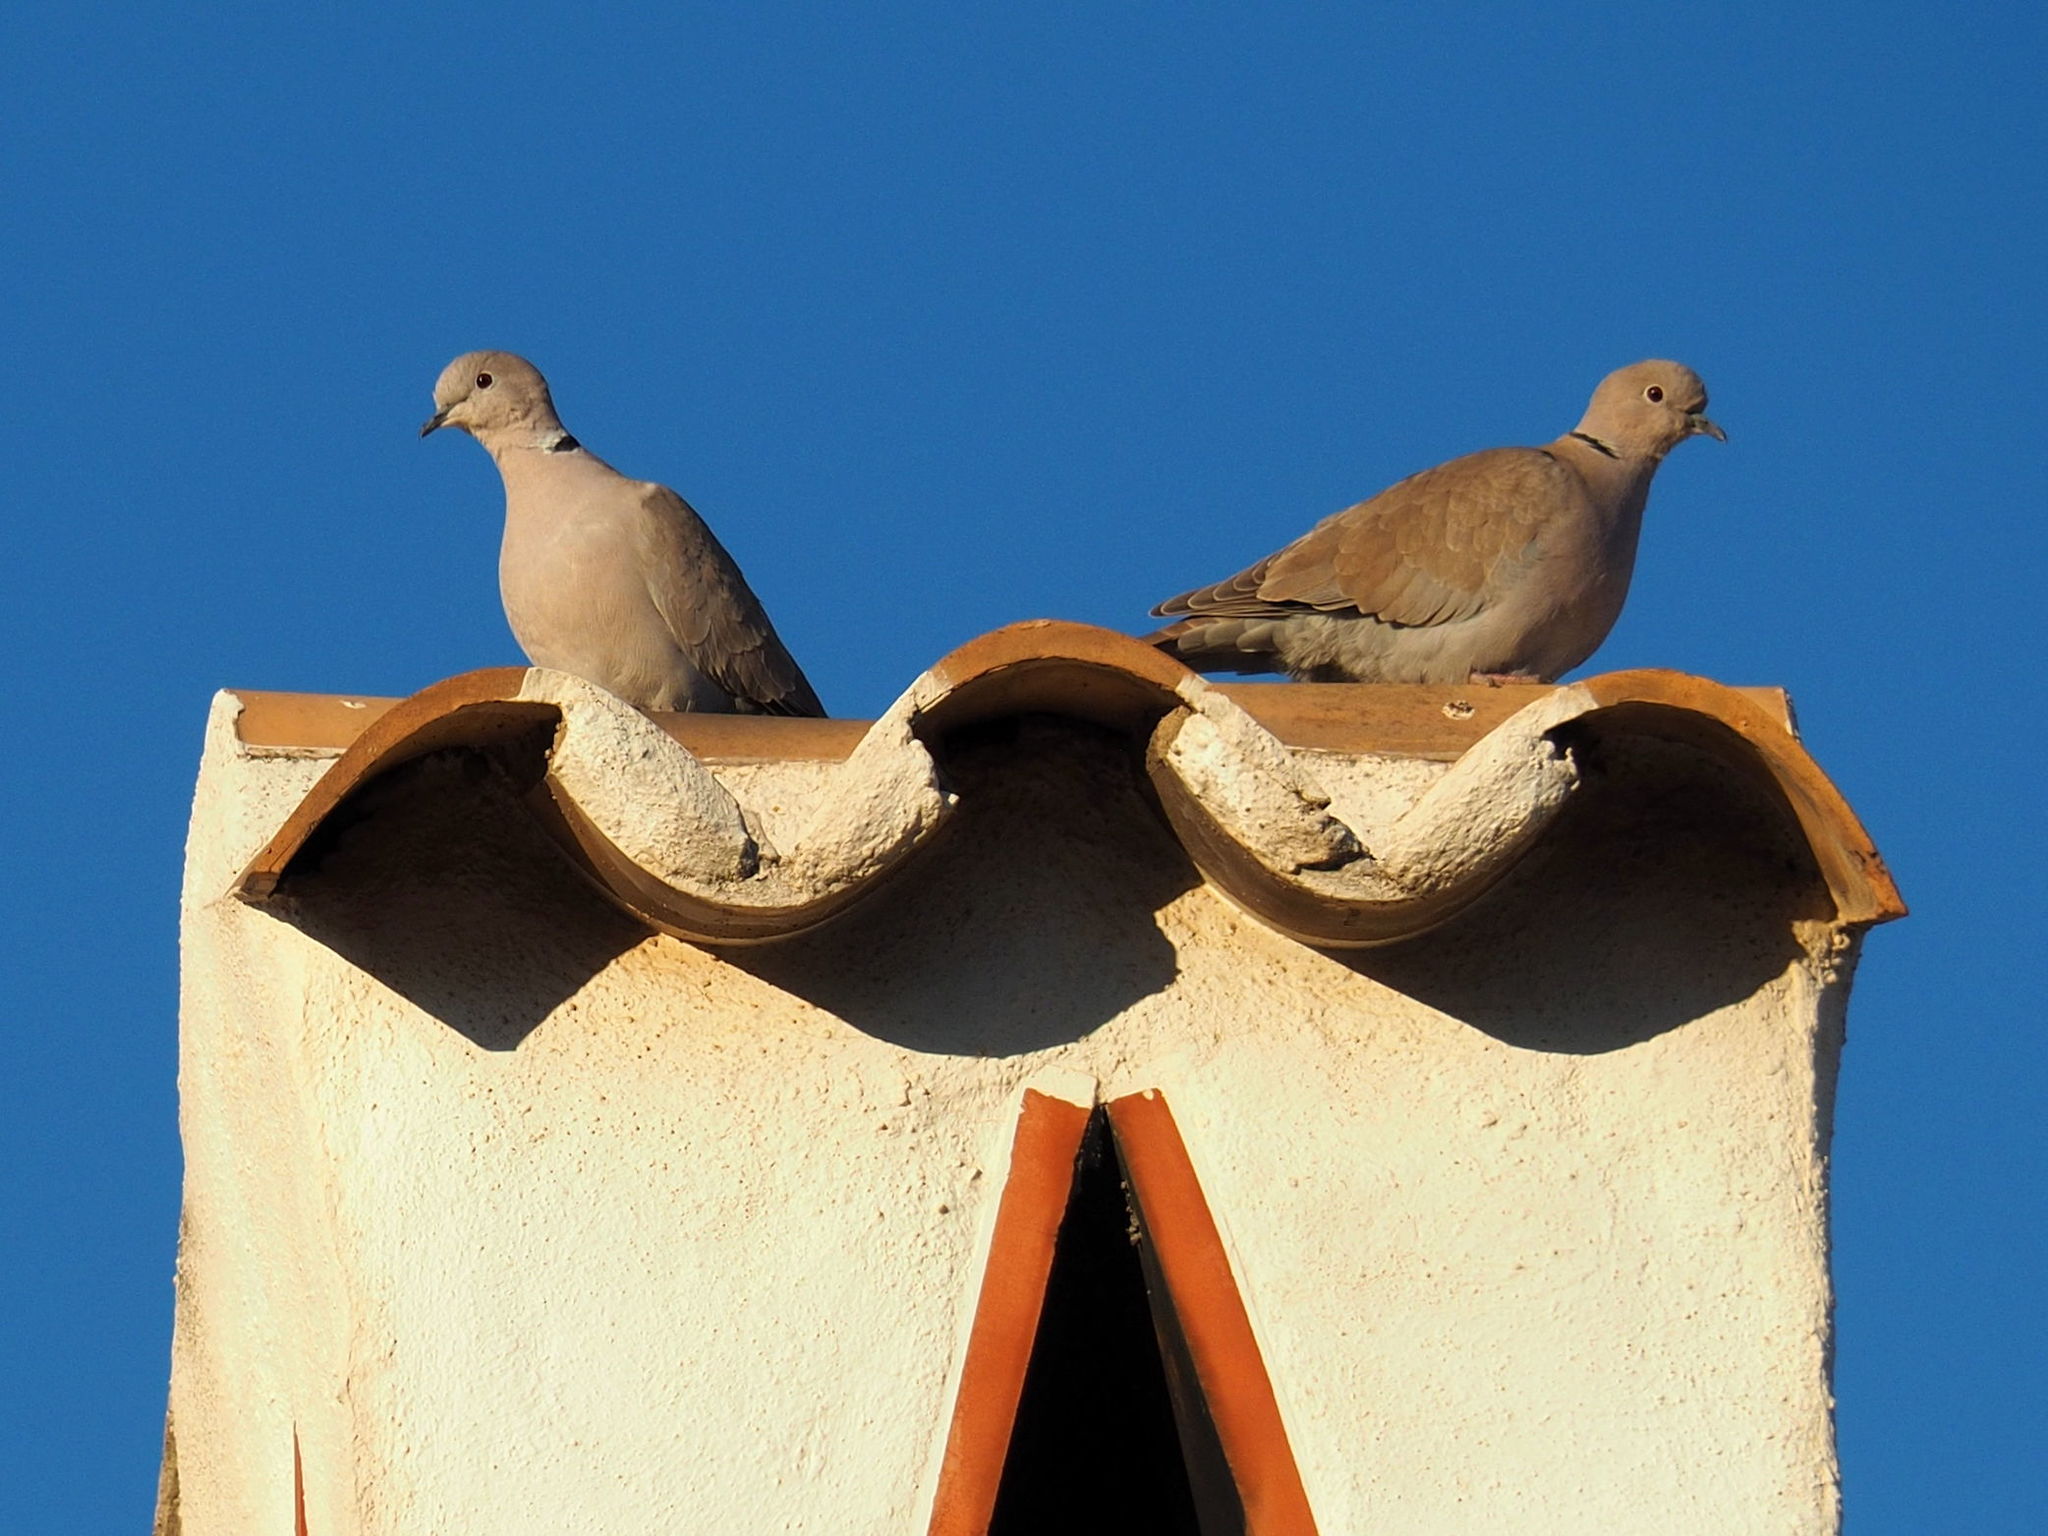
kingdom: Animalia
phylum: Chordata
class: Aves
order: Columbiformes
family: Columbidae
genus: Streptopelia
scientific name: Streptopelia decaocto
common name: Eurasian collared dove
